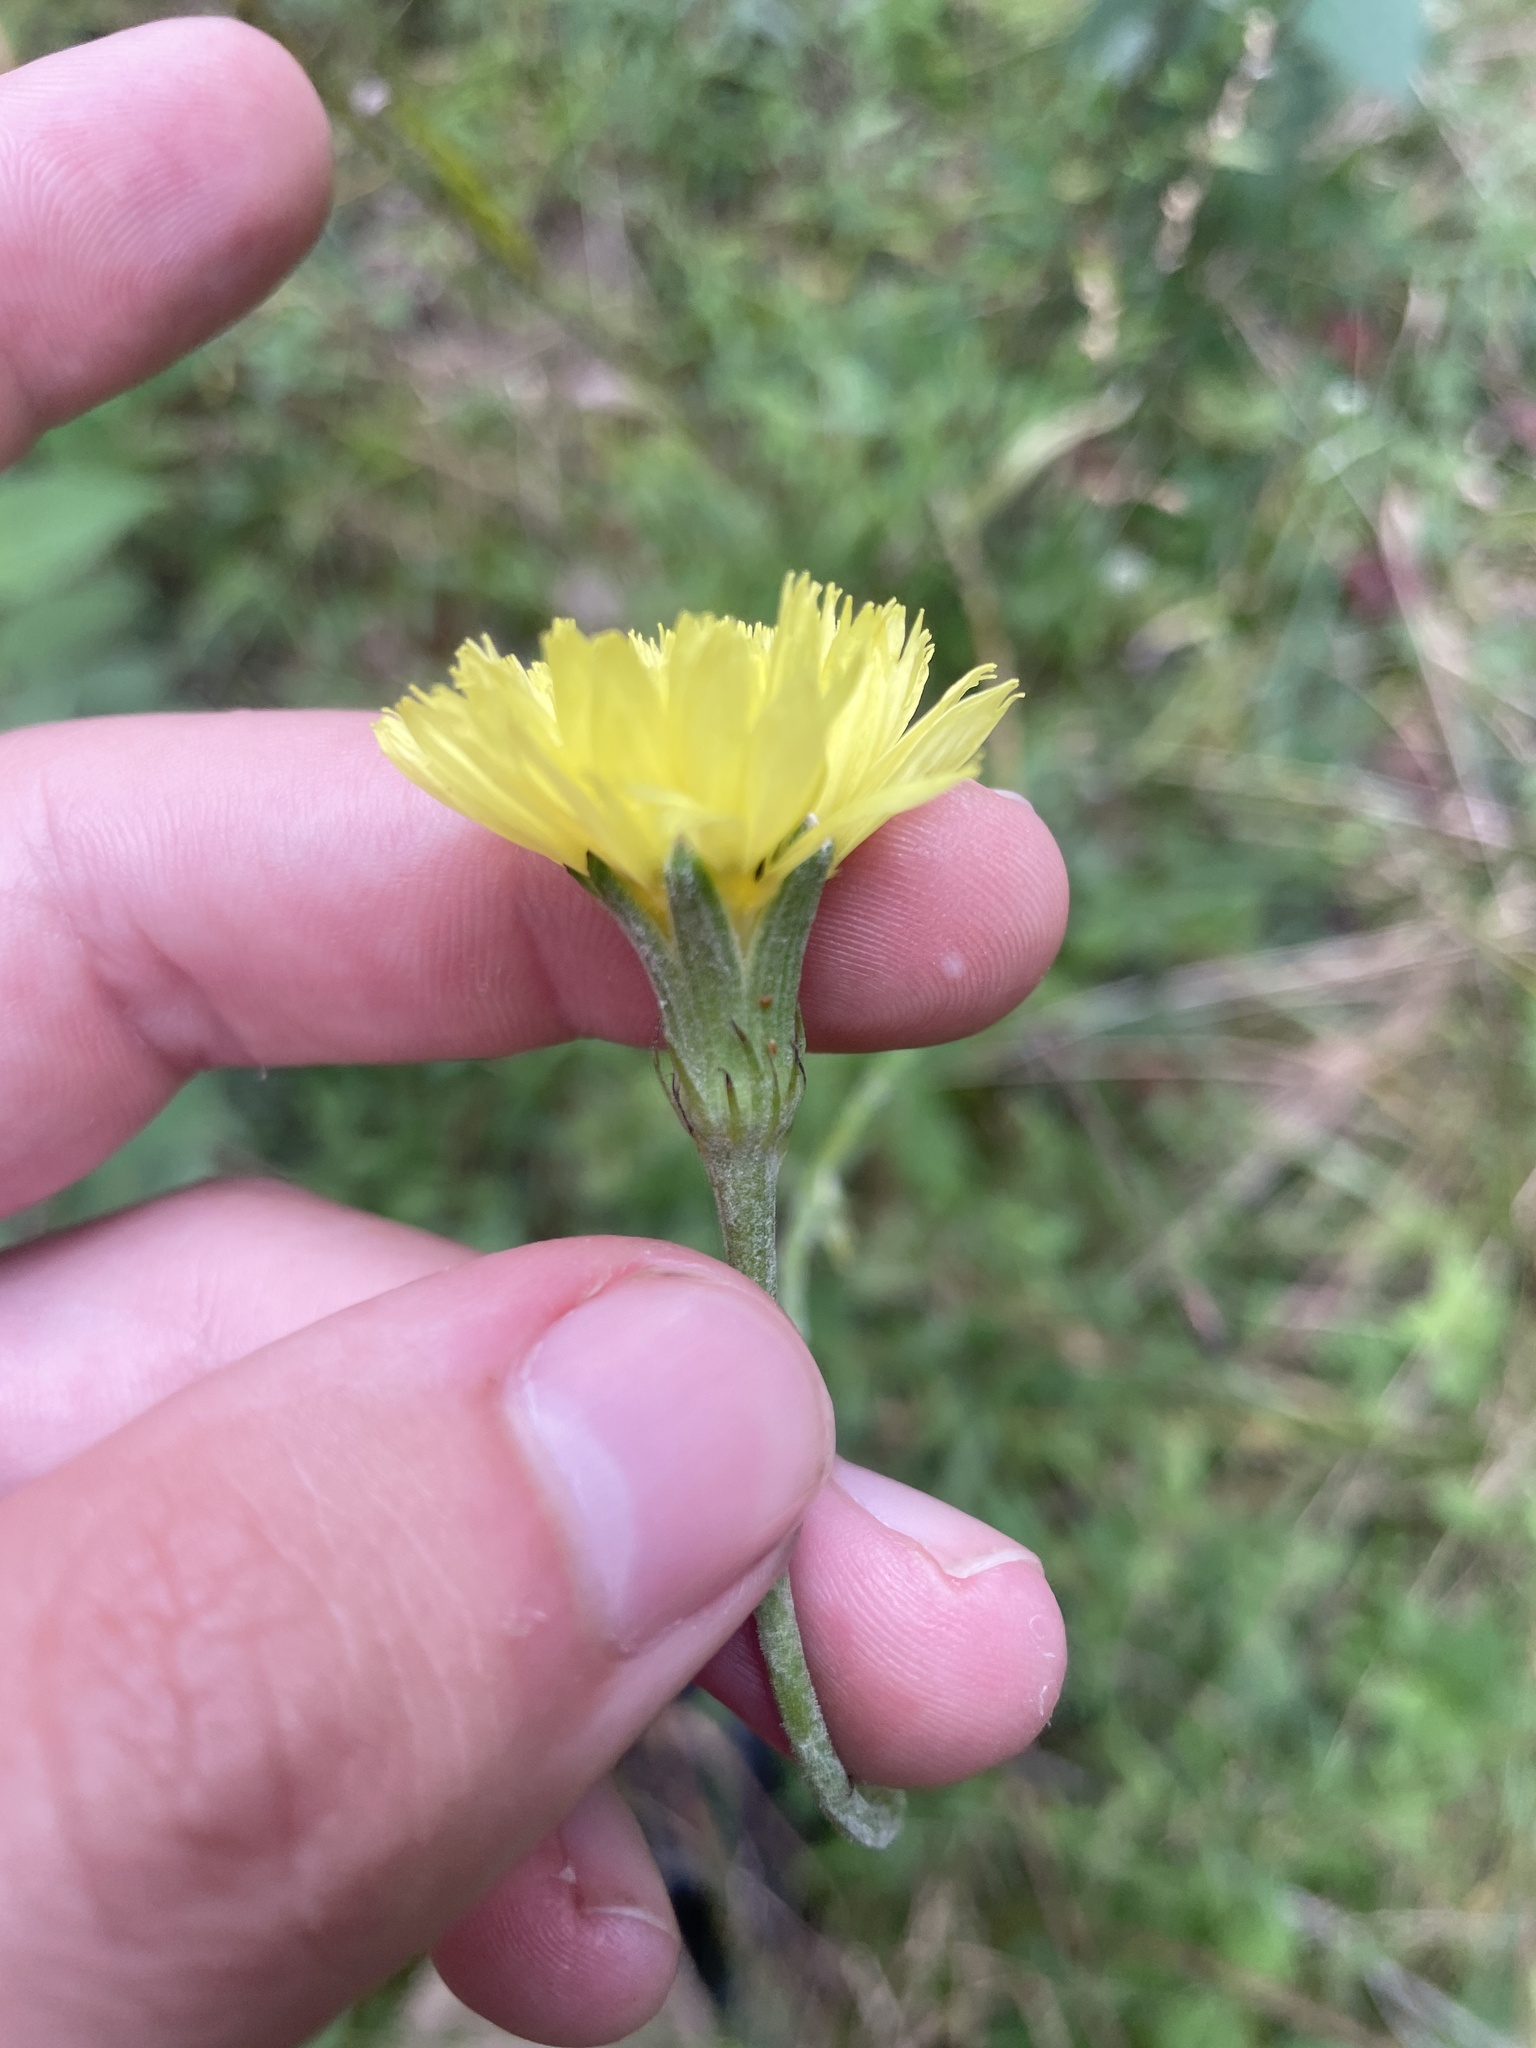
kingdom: Plantae
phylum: Tracheophyta
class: Magnoliopsida
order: Asterales
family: Asteraceae
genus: Pyrrhopappus
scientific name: Pyrrhopappus carolinianus
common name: Carolina desert-chicory
